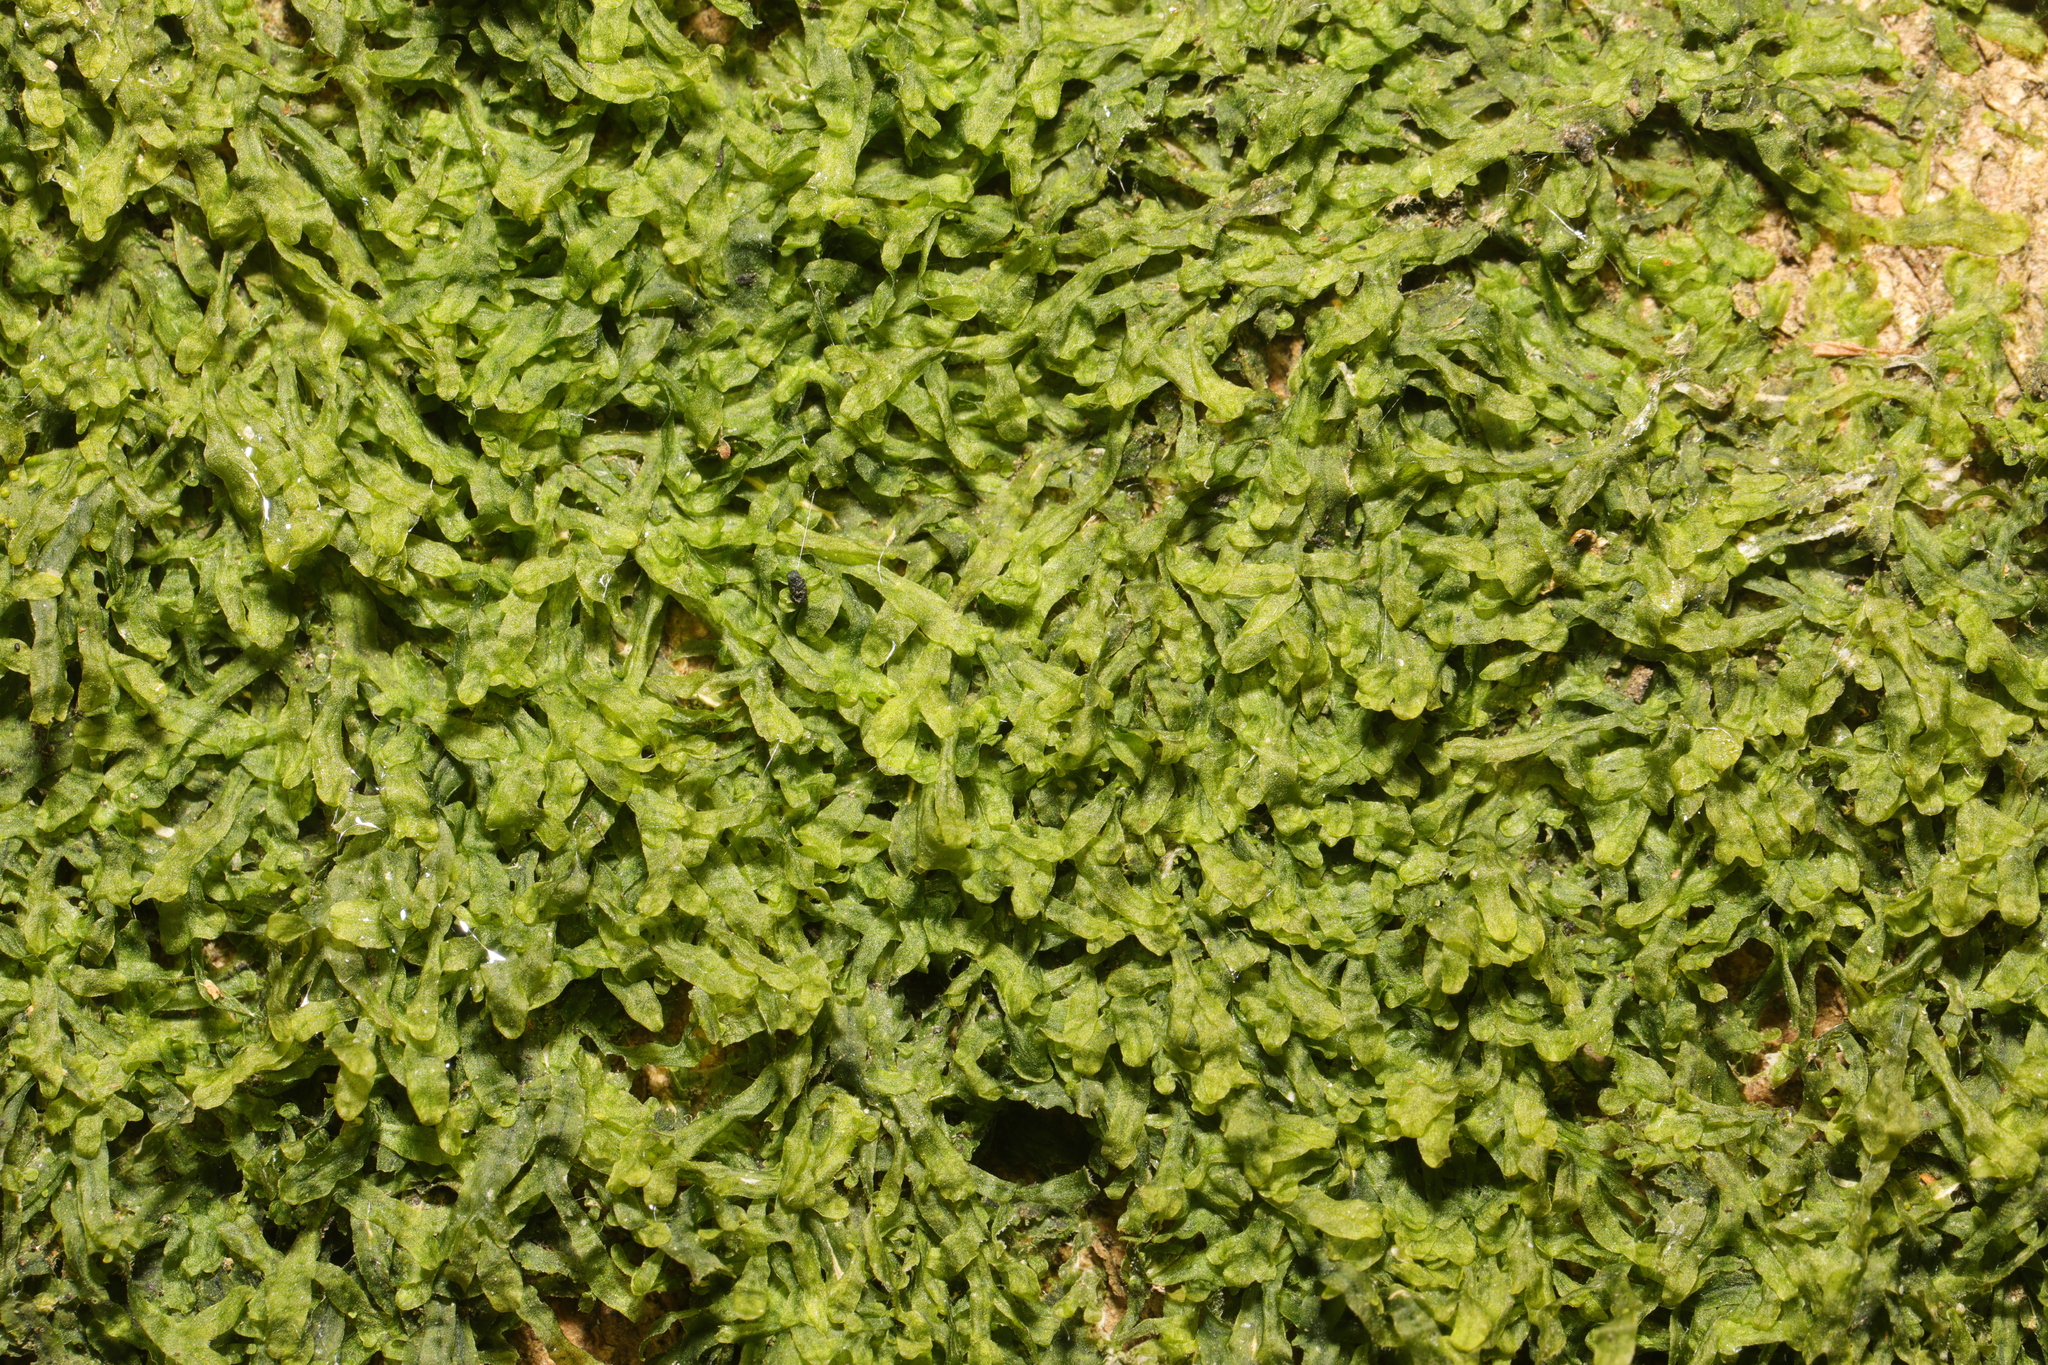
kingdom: Plantae
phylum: Marchantiophyta
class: Jungermanniopsida
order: Metzgeriales
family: Metzgeriaceae
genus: Metzgeria
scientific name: Metzgeria furcata
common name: Forked veilwort
